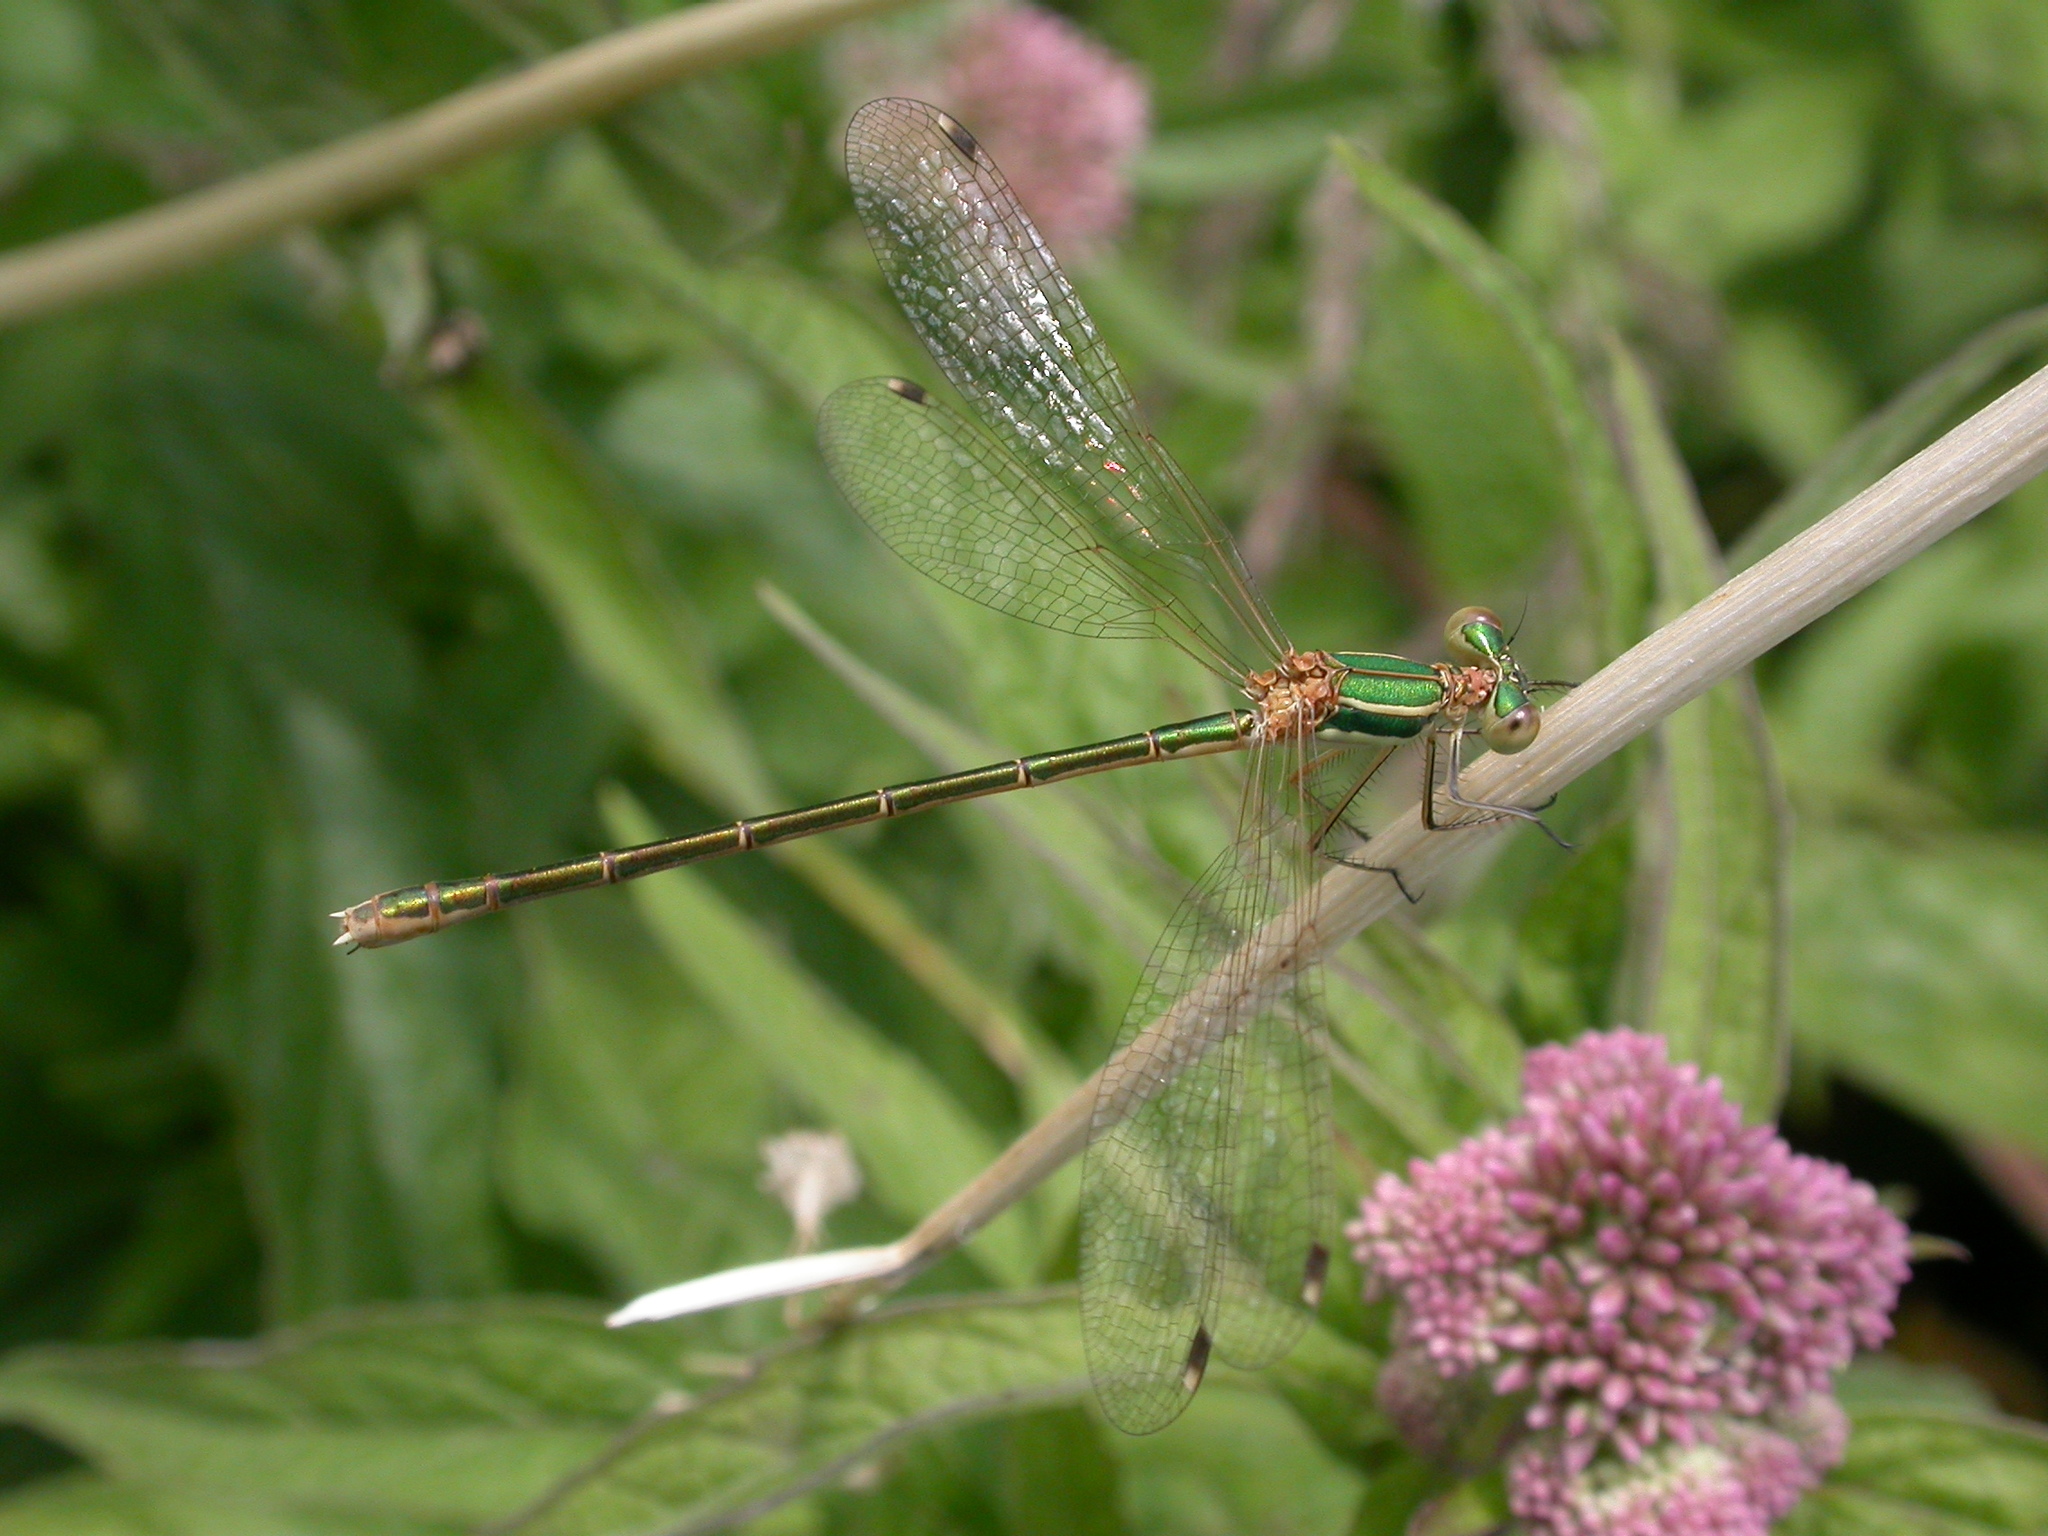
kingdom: Animalia
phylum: Arthropoda
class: Insecta
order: Odonata
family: Lestidae
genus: Lestes
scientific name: Lestes barbarus
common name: Migrant spreadwing
